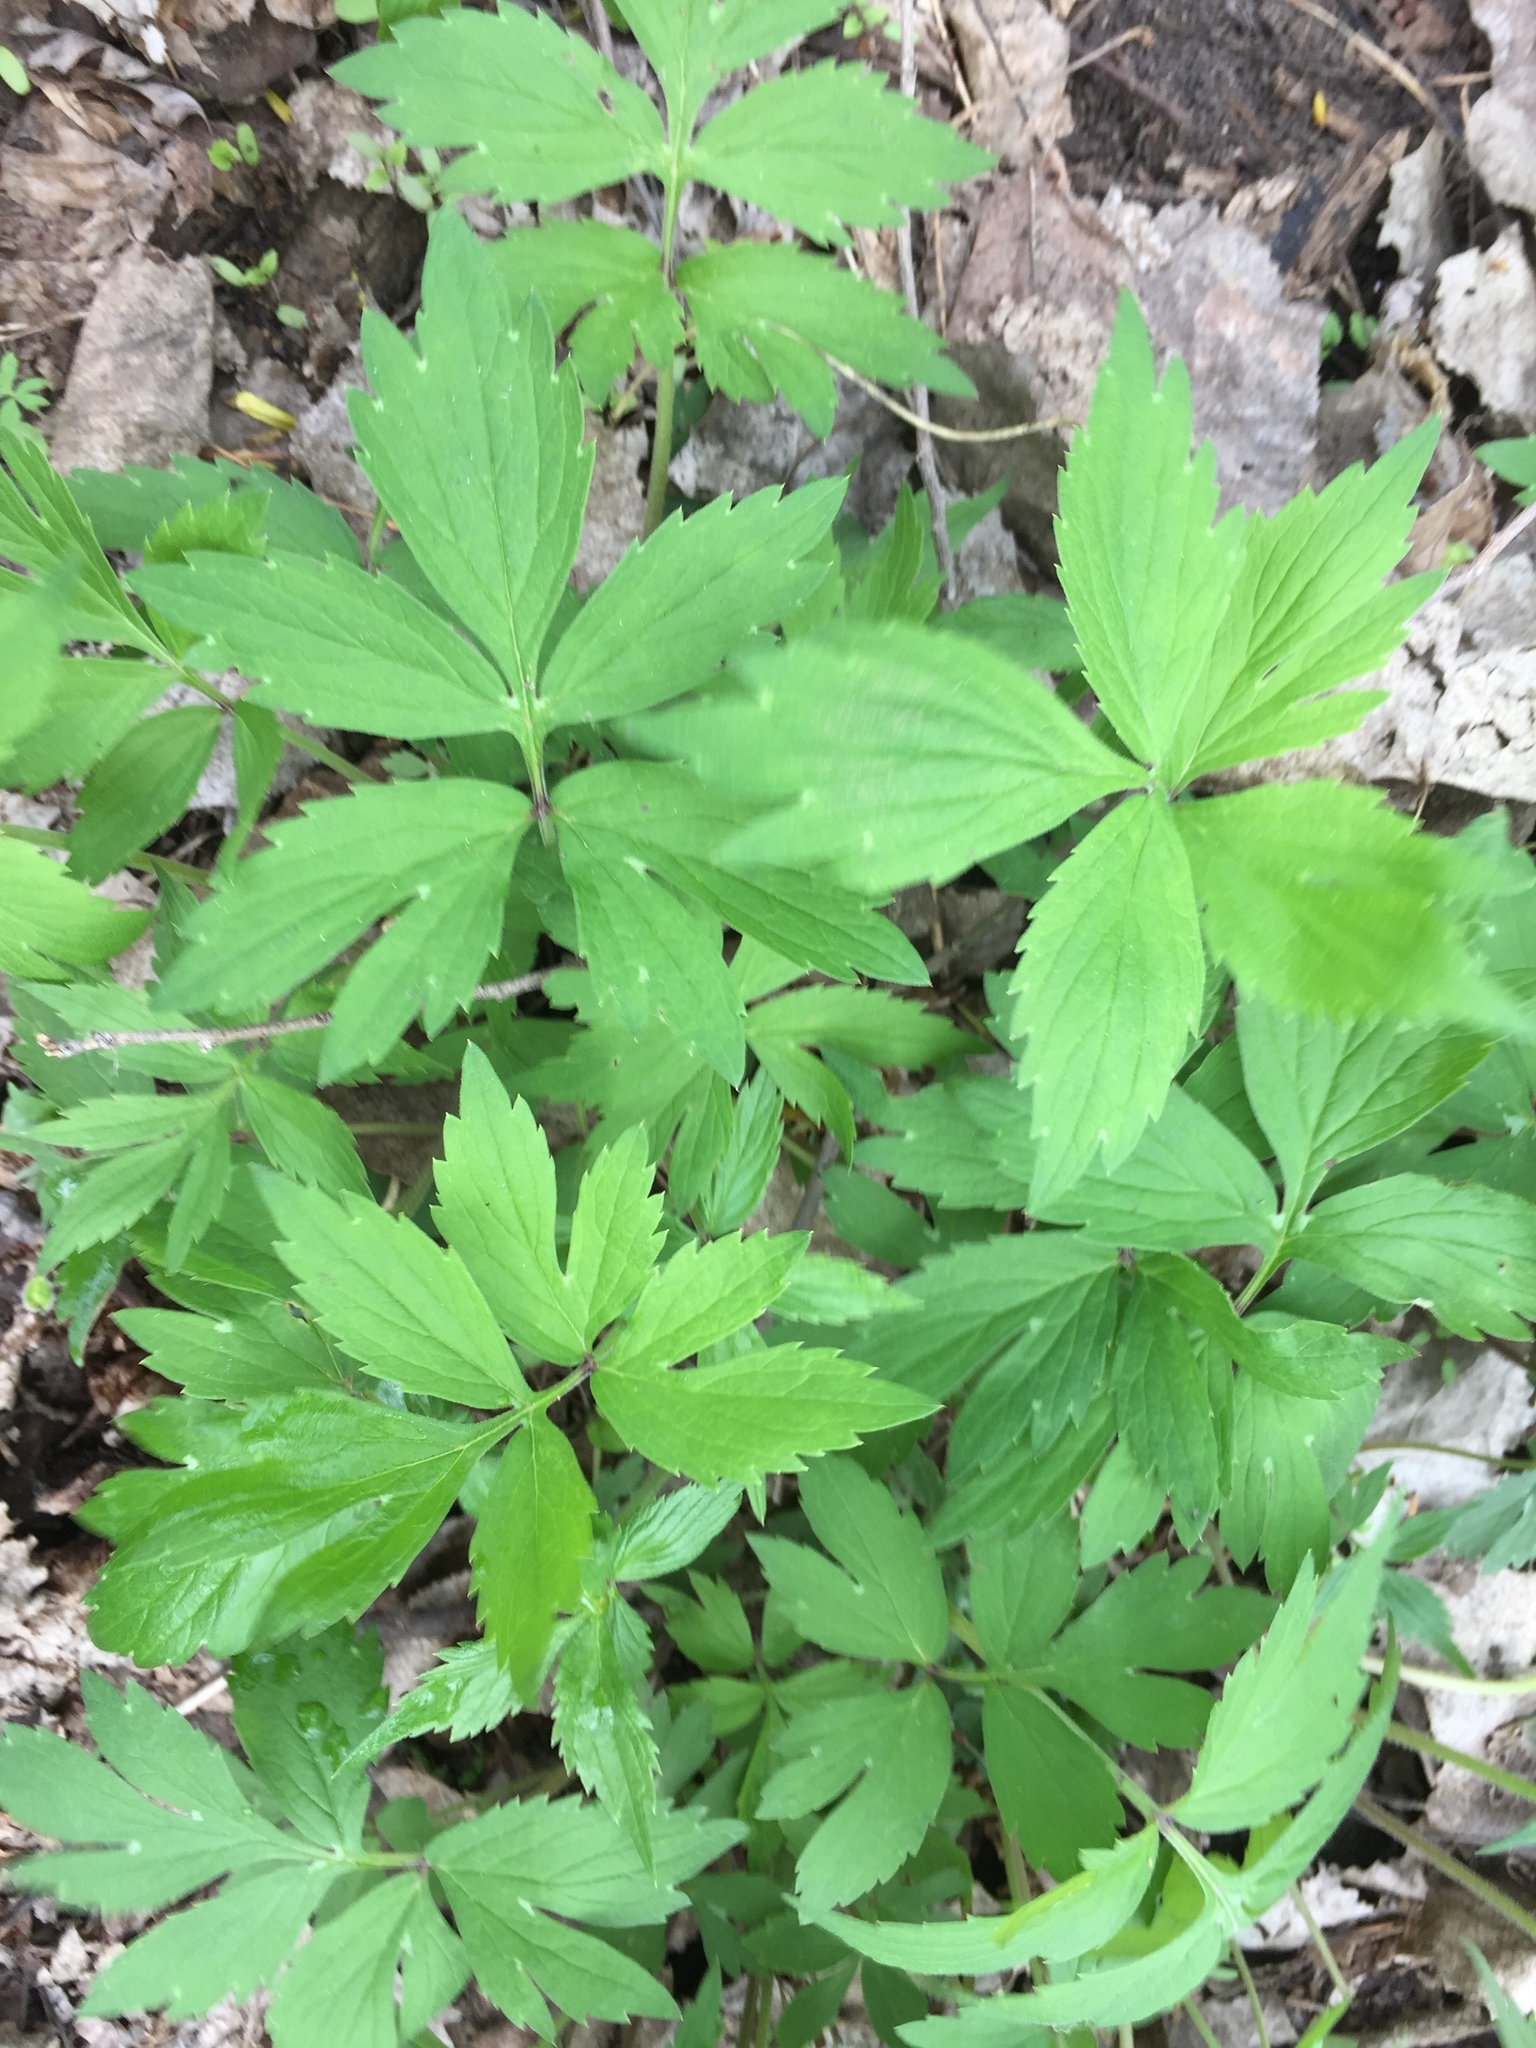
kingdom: Plantae
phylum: Tracheophyta
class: Magnoliopsida
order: Boraginales
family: Hydrophyllaceae
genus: Hydrophyllum
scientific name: Hydrophyllum virginianum
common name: Virginia waterleaf
